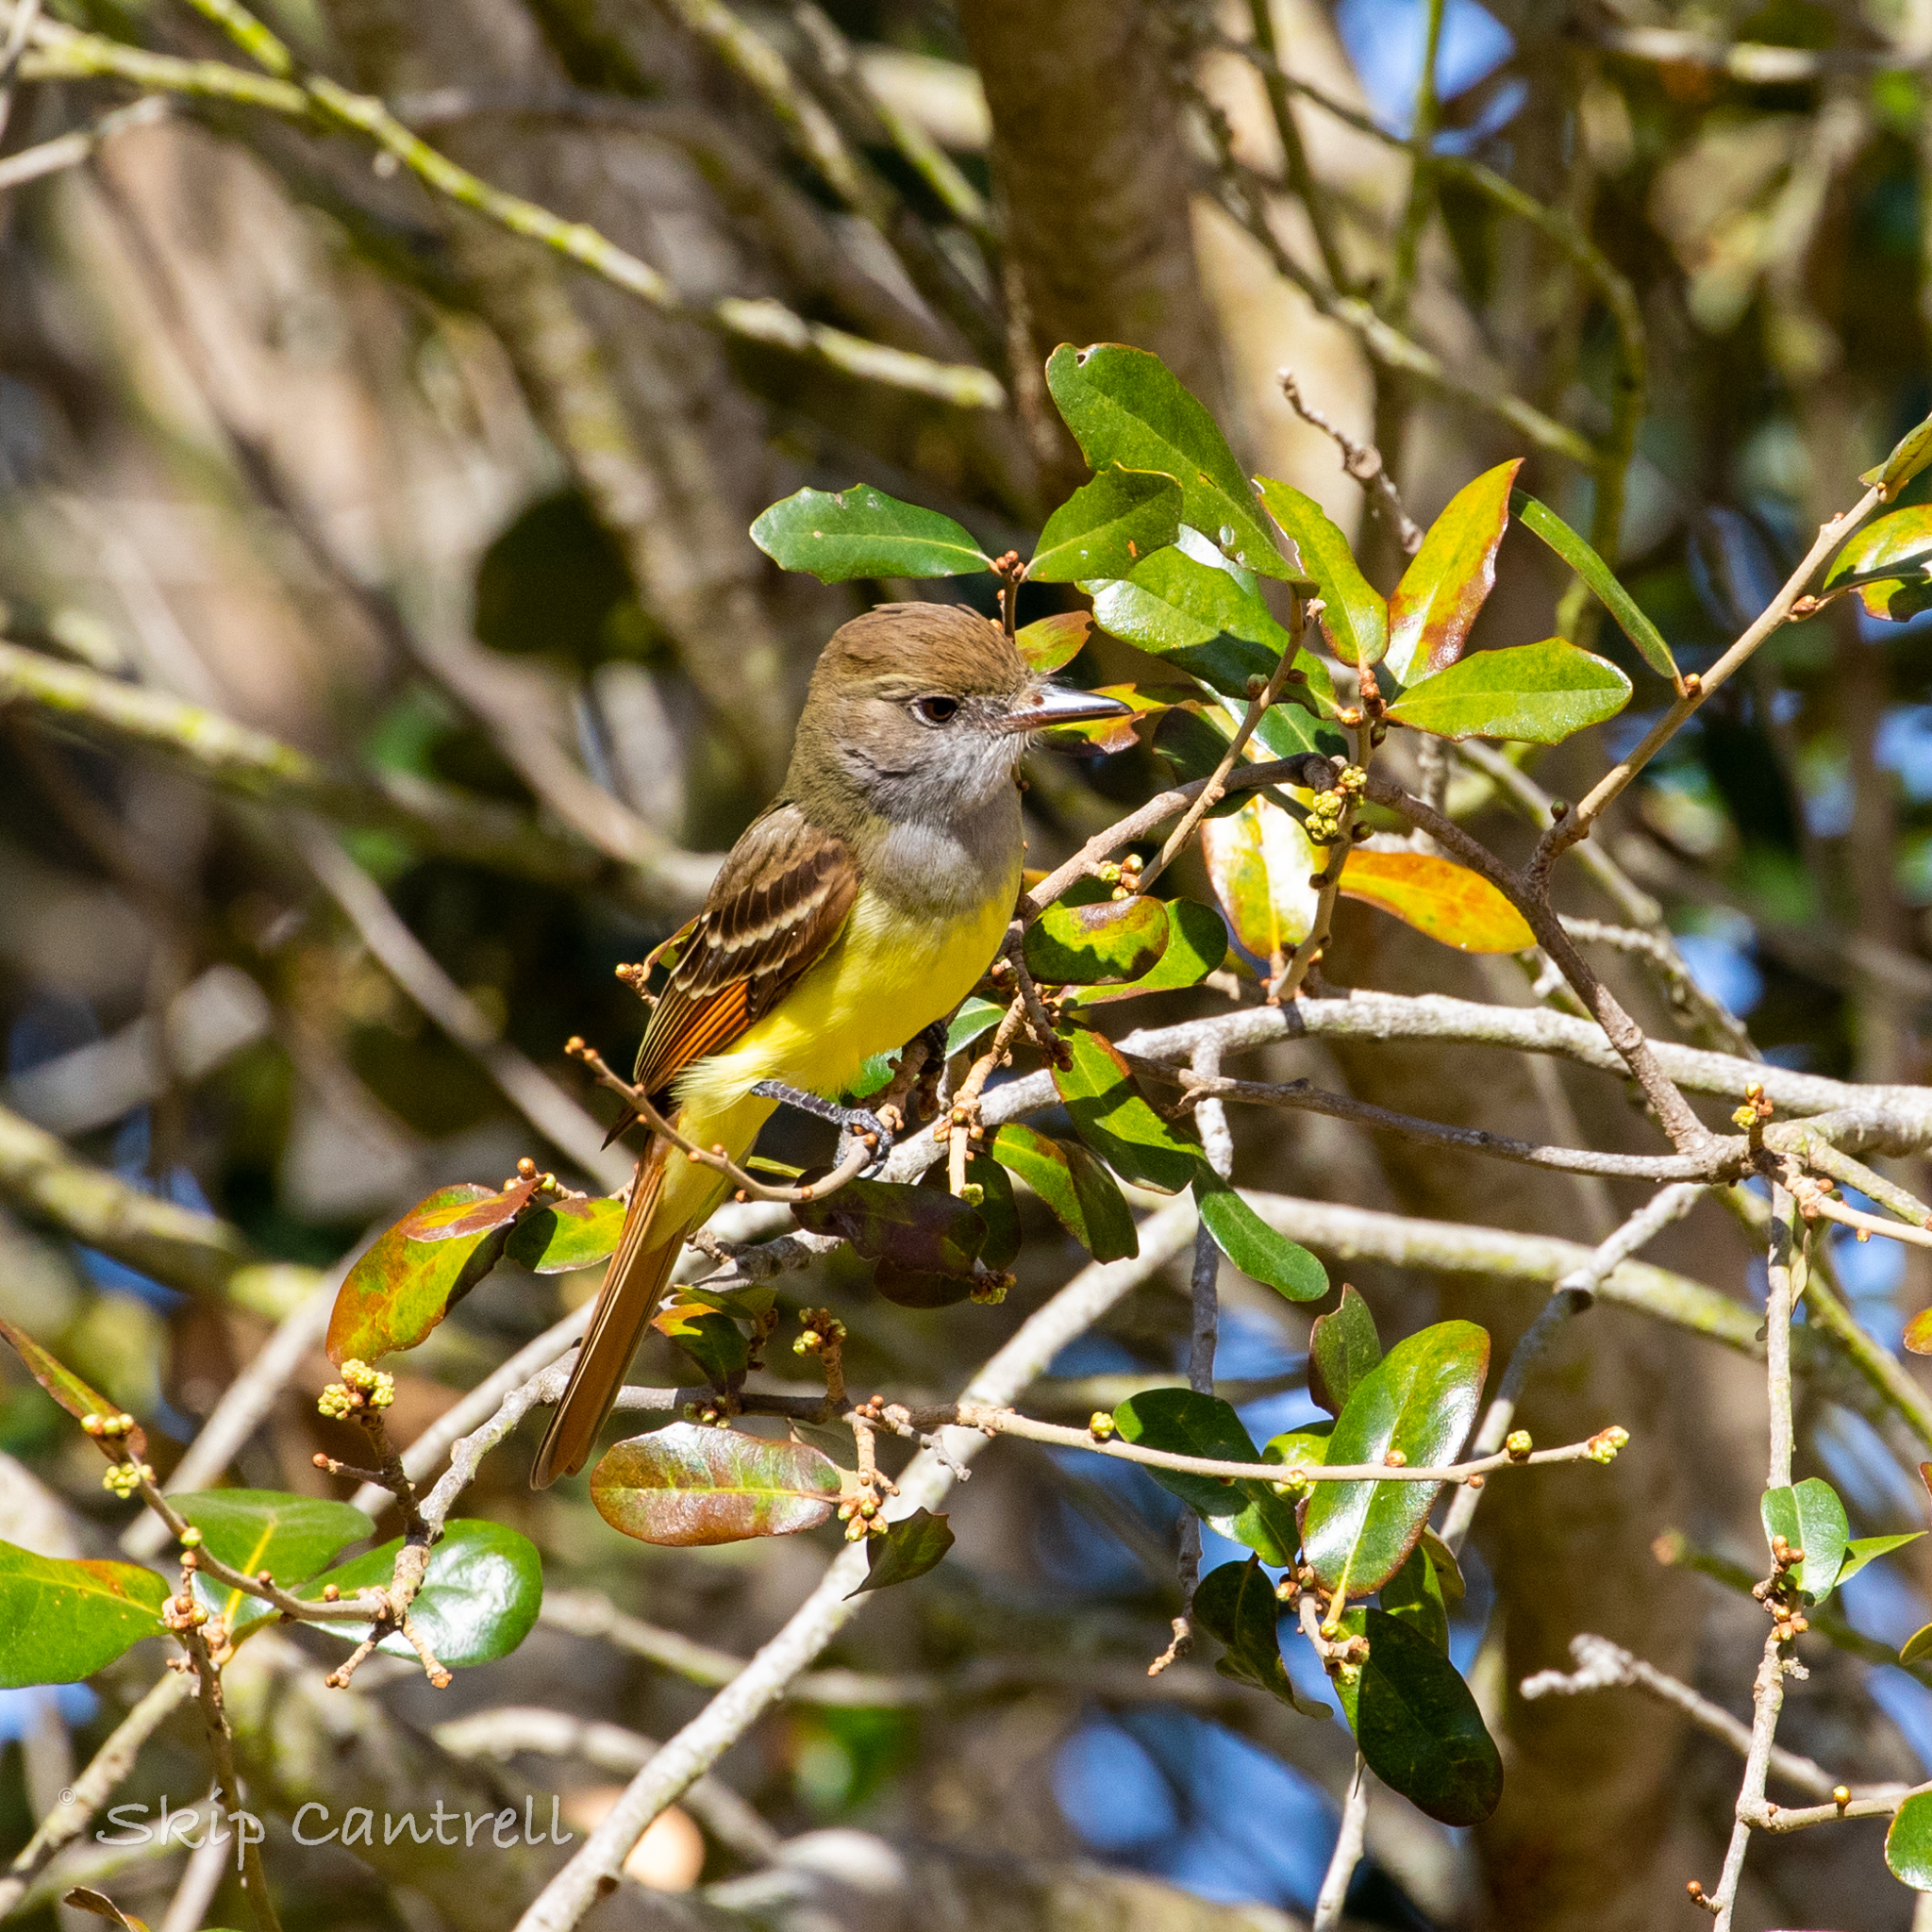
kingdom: Animalia
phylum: Chordata
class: Aves
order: Passeriformes
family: Tyrannidae
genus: Myiarchus
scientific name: Myiarchus crinitus
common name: Great crested flycatcher
